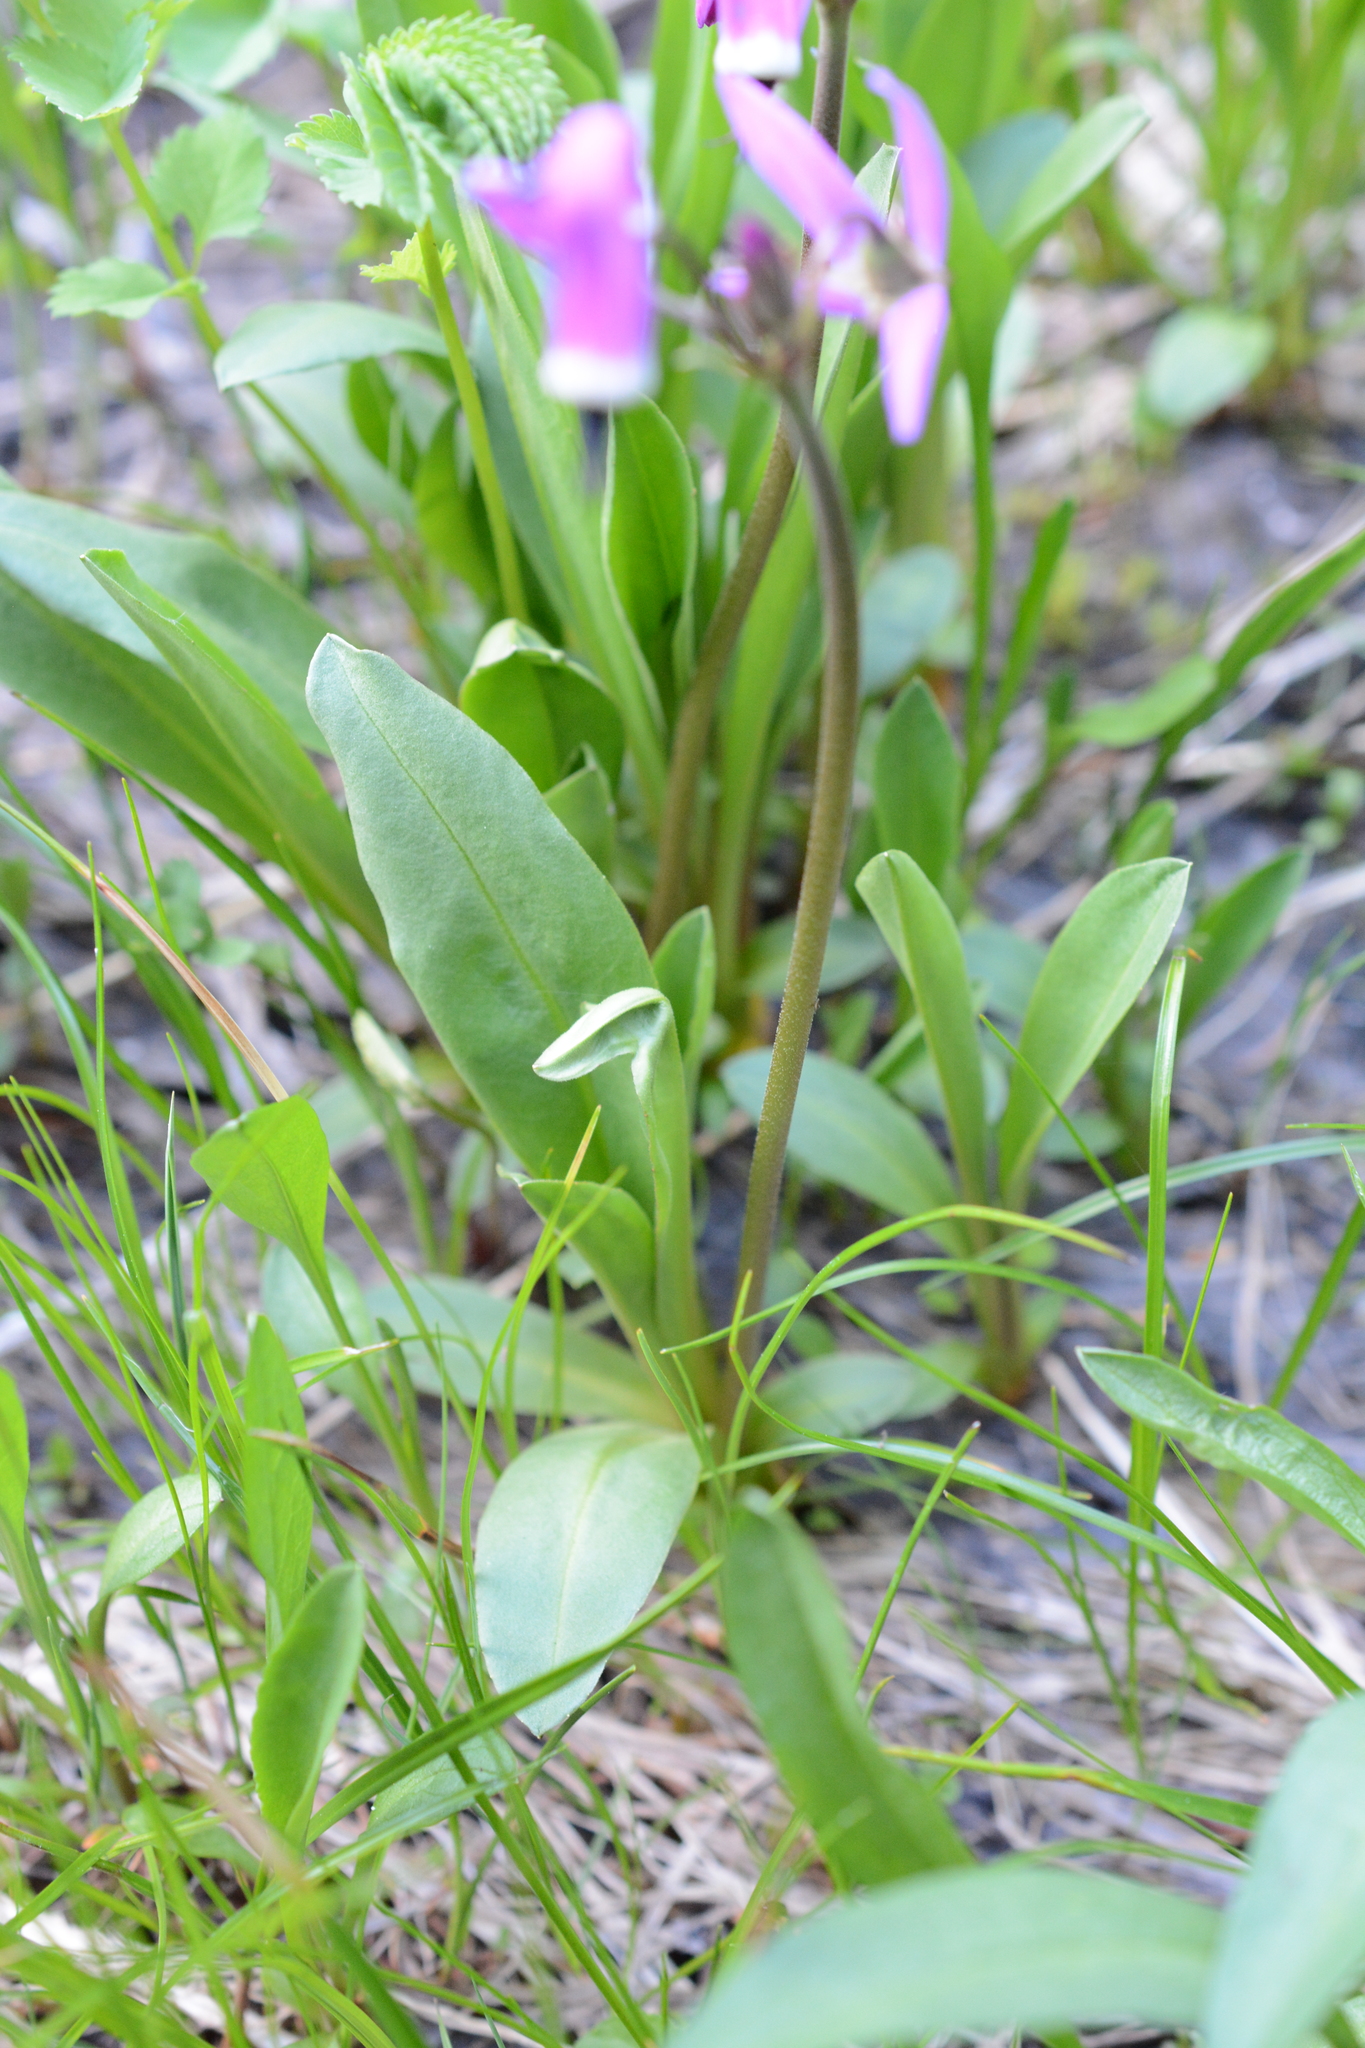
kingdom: Plantae
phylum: Tracheophyta
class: Magnoliopsida
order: Ericales
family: Primulaceae
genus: Dodecatheon
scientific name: Dodecatheon jeffreyanum
